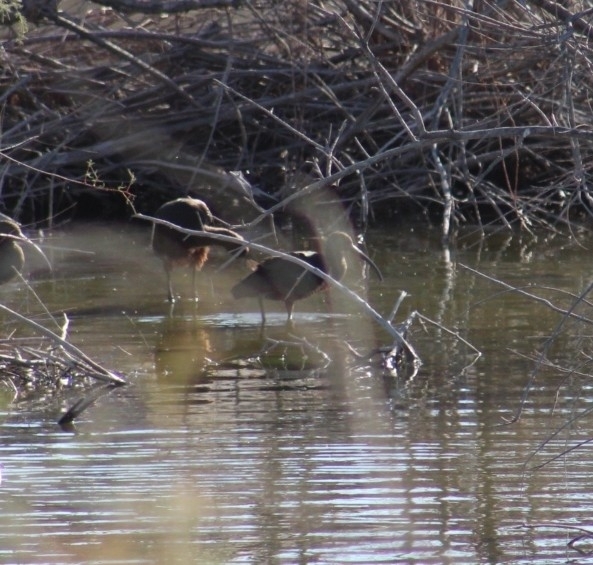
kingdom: Animalia
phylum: Chordata
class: Aves
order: Pelecaniformes
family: Threskiornithidae
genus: Plegadis
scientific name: Plegadis chihi
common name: White-faced ibis
